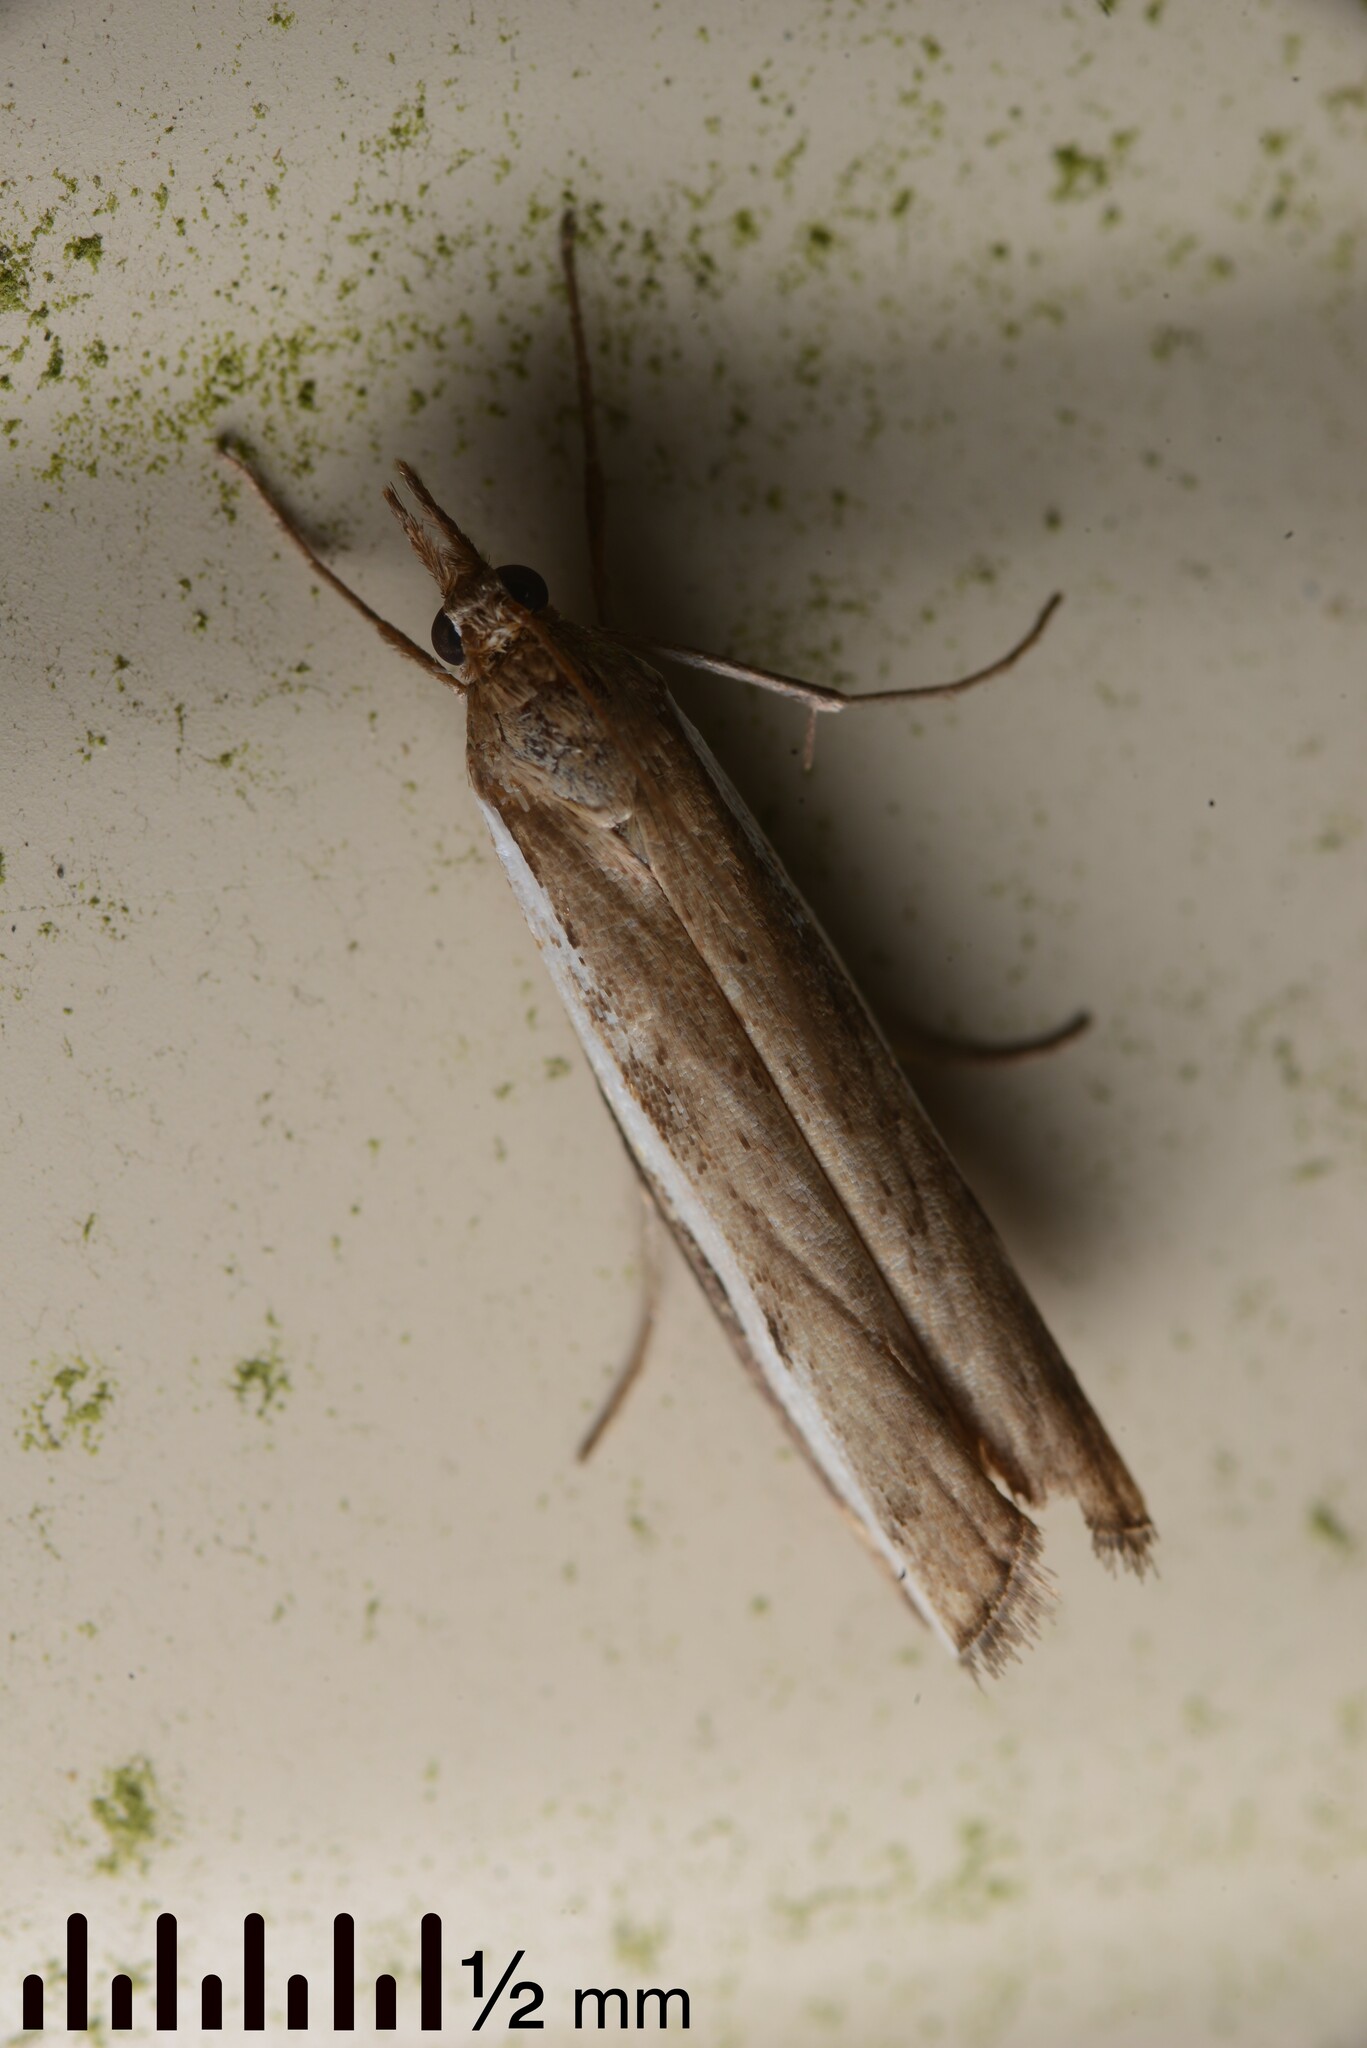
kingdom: Animalia
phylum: Arthropoda
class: Insecta
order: Lepidoptera
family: Crambidae
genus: Orocrambus
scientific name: Orocrambus flexuosellus
